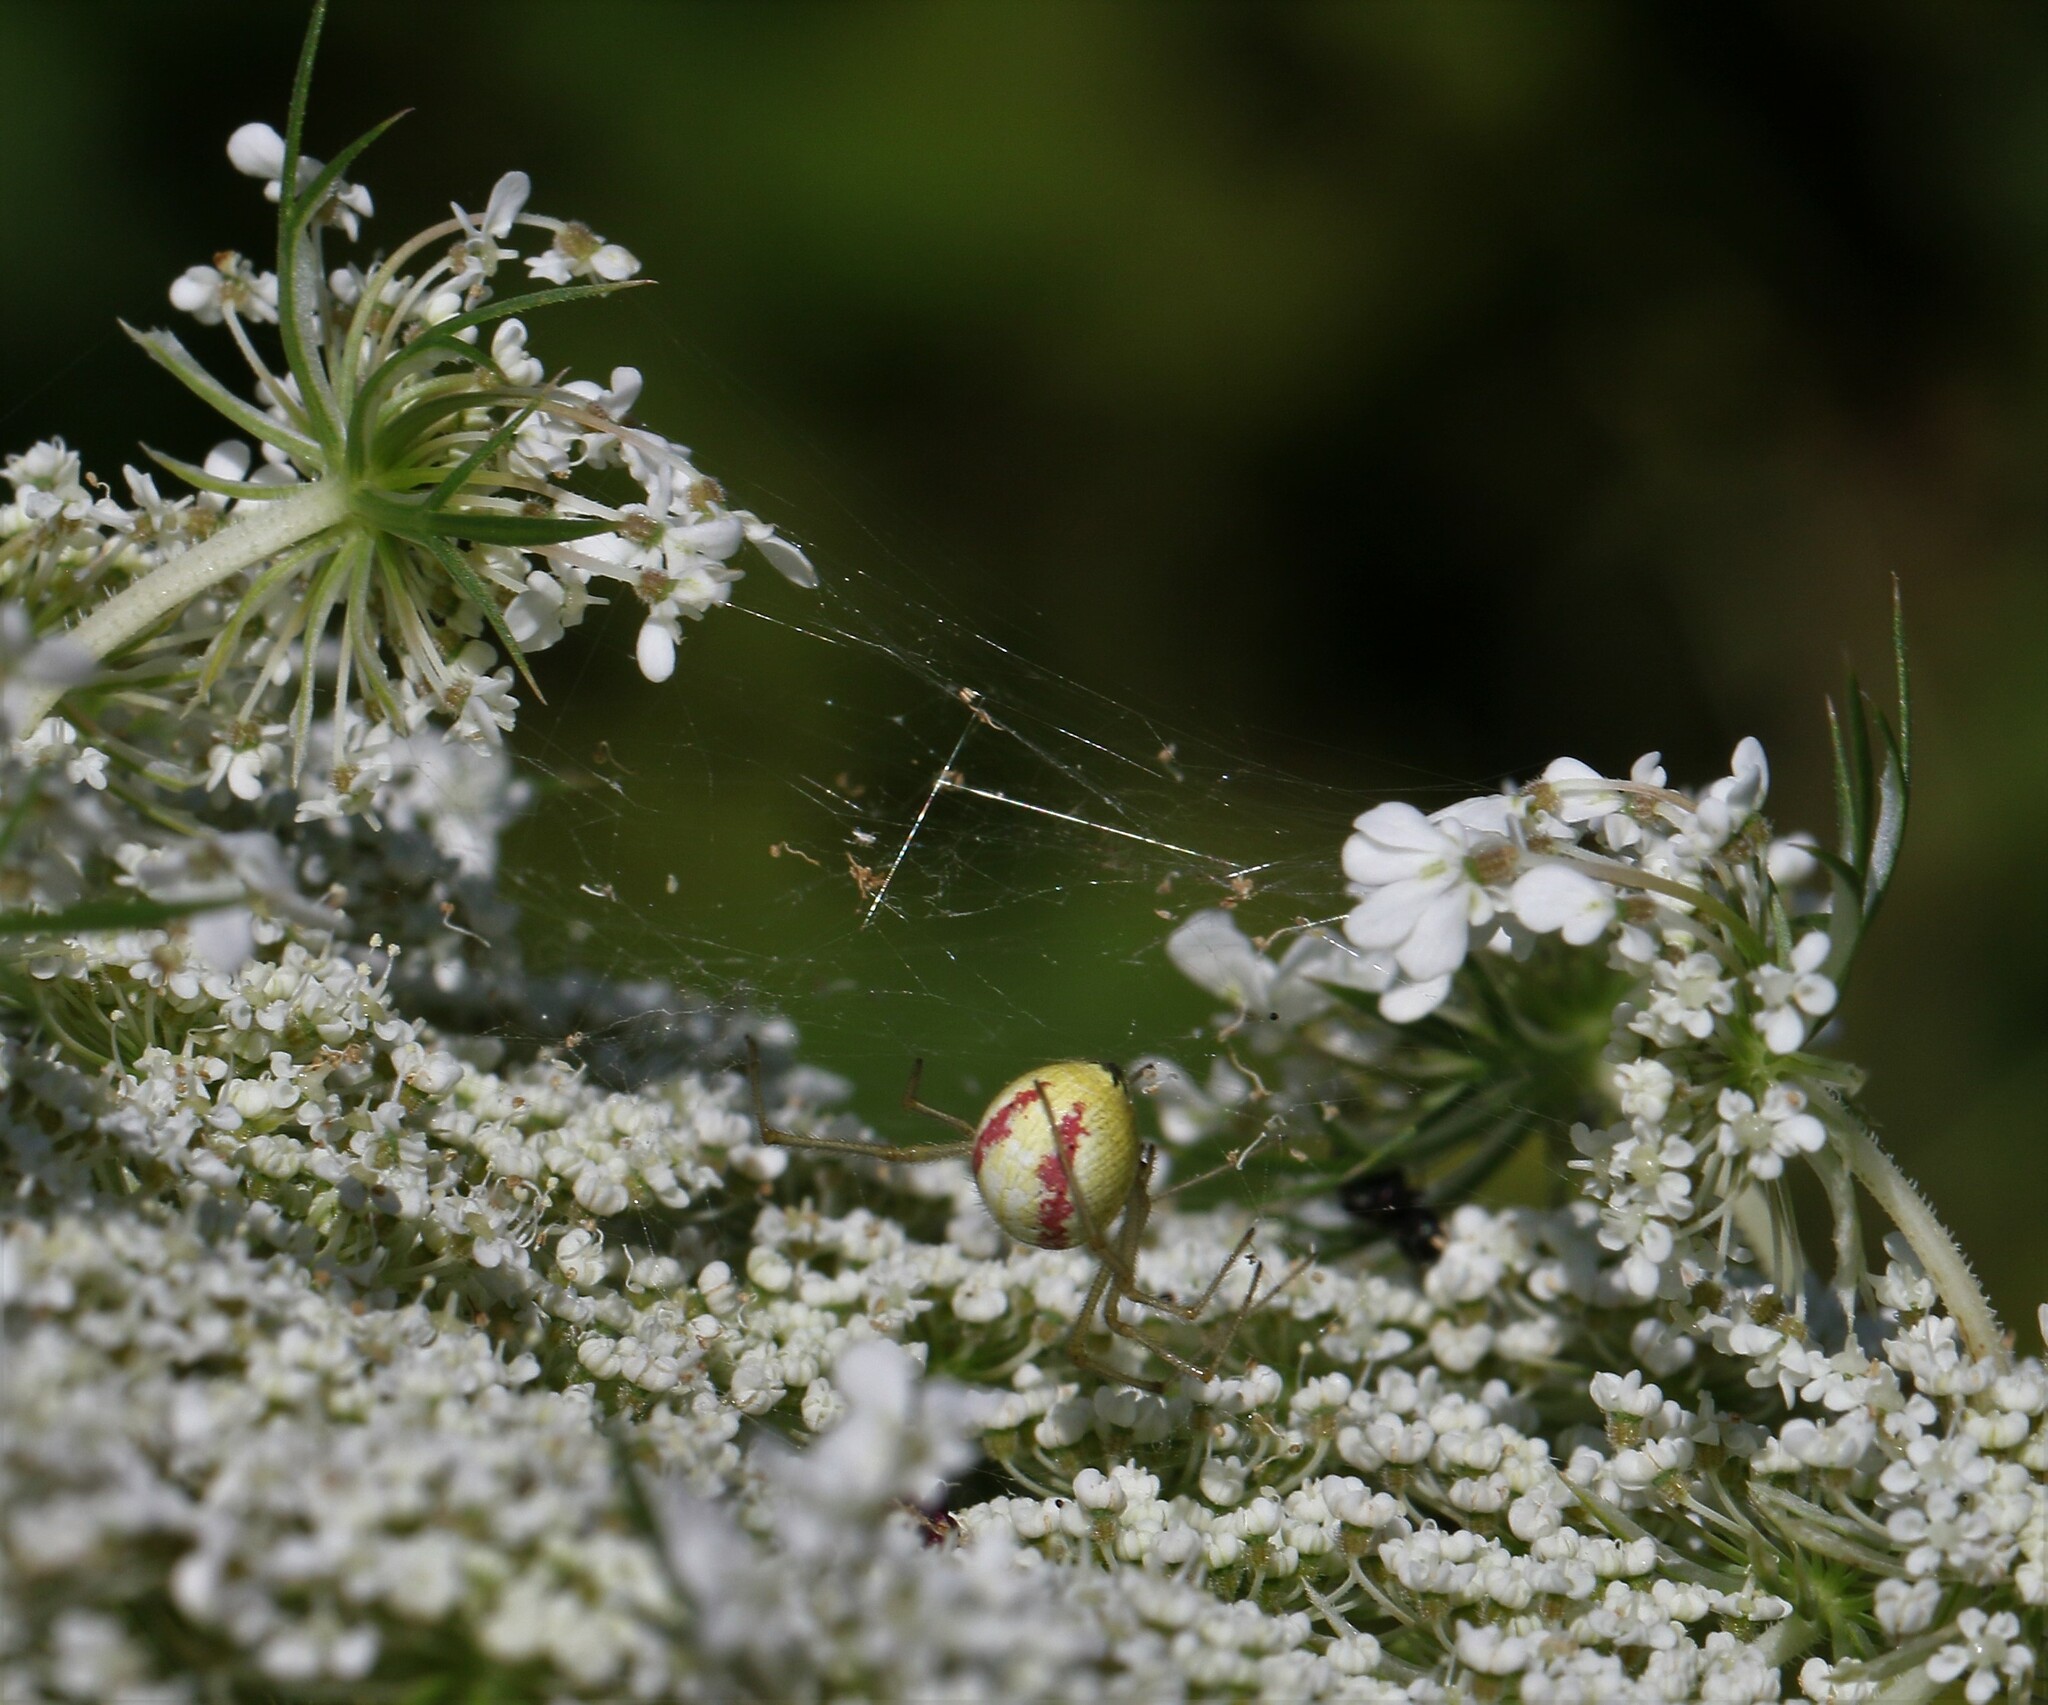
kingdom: Animalia
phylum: Arthropoda
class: Arachnida
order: Araneae
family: Theridiidae
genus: Enoplognatha
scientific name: Enoplognatha ovata
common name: Common candy-striped spider
